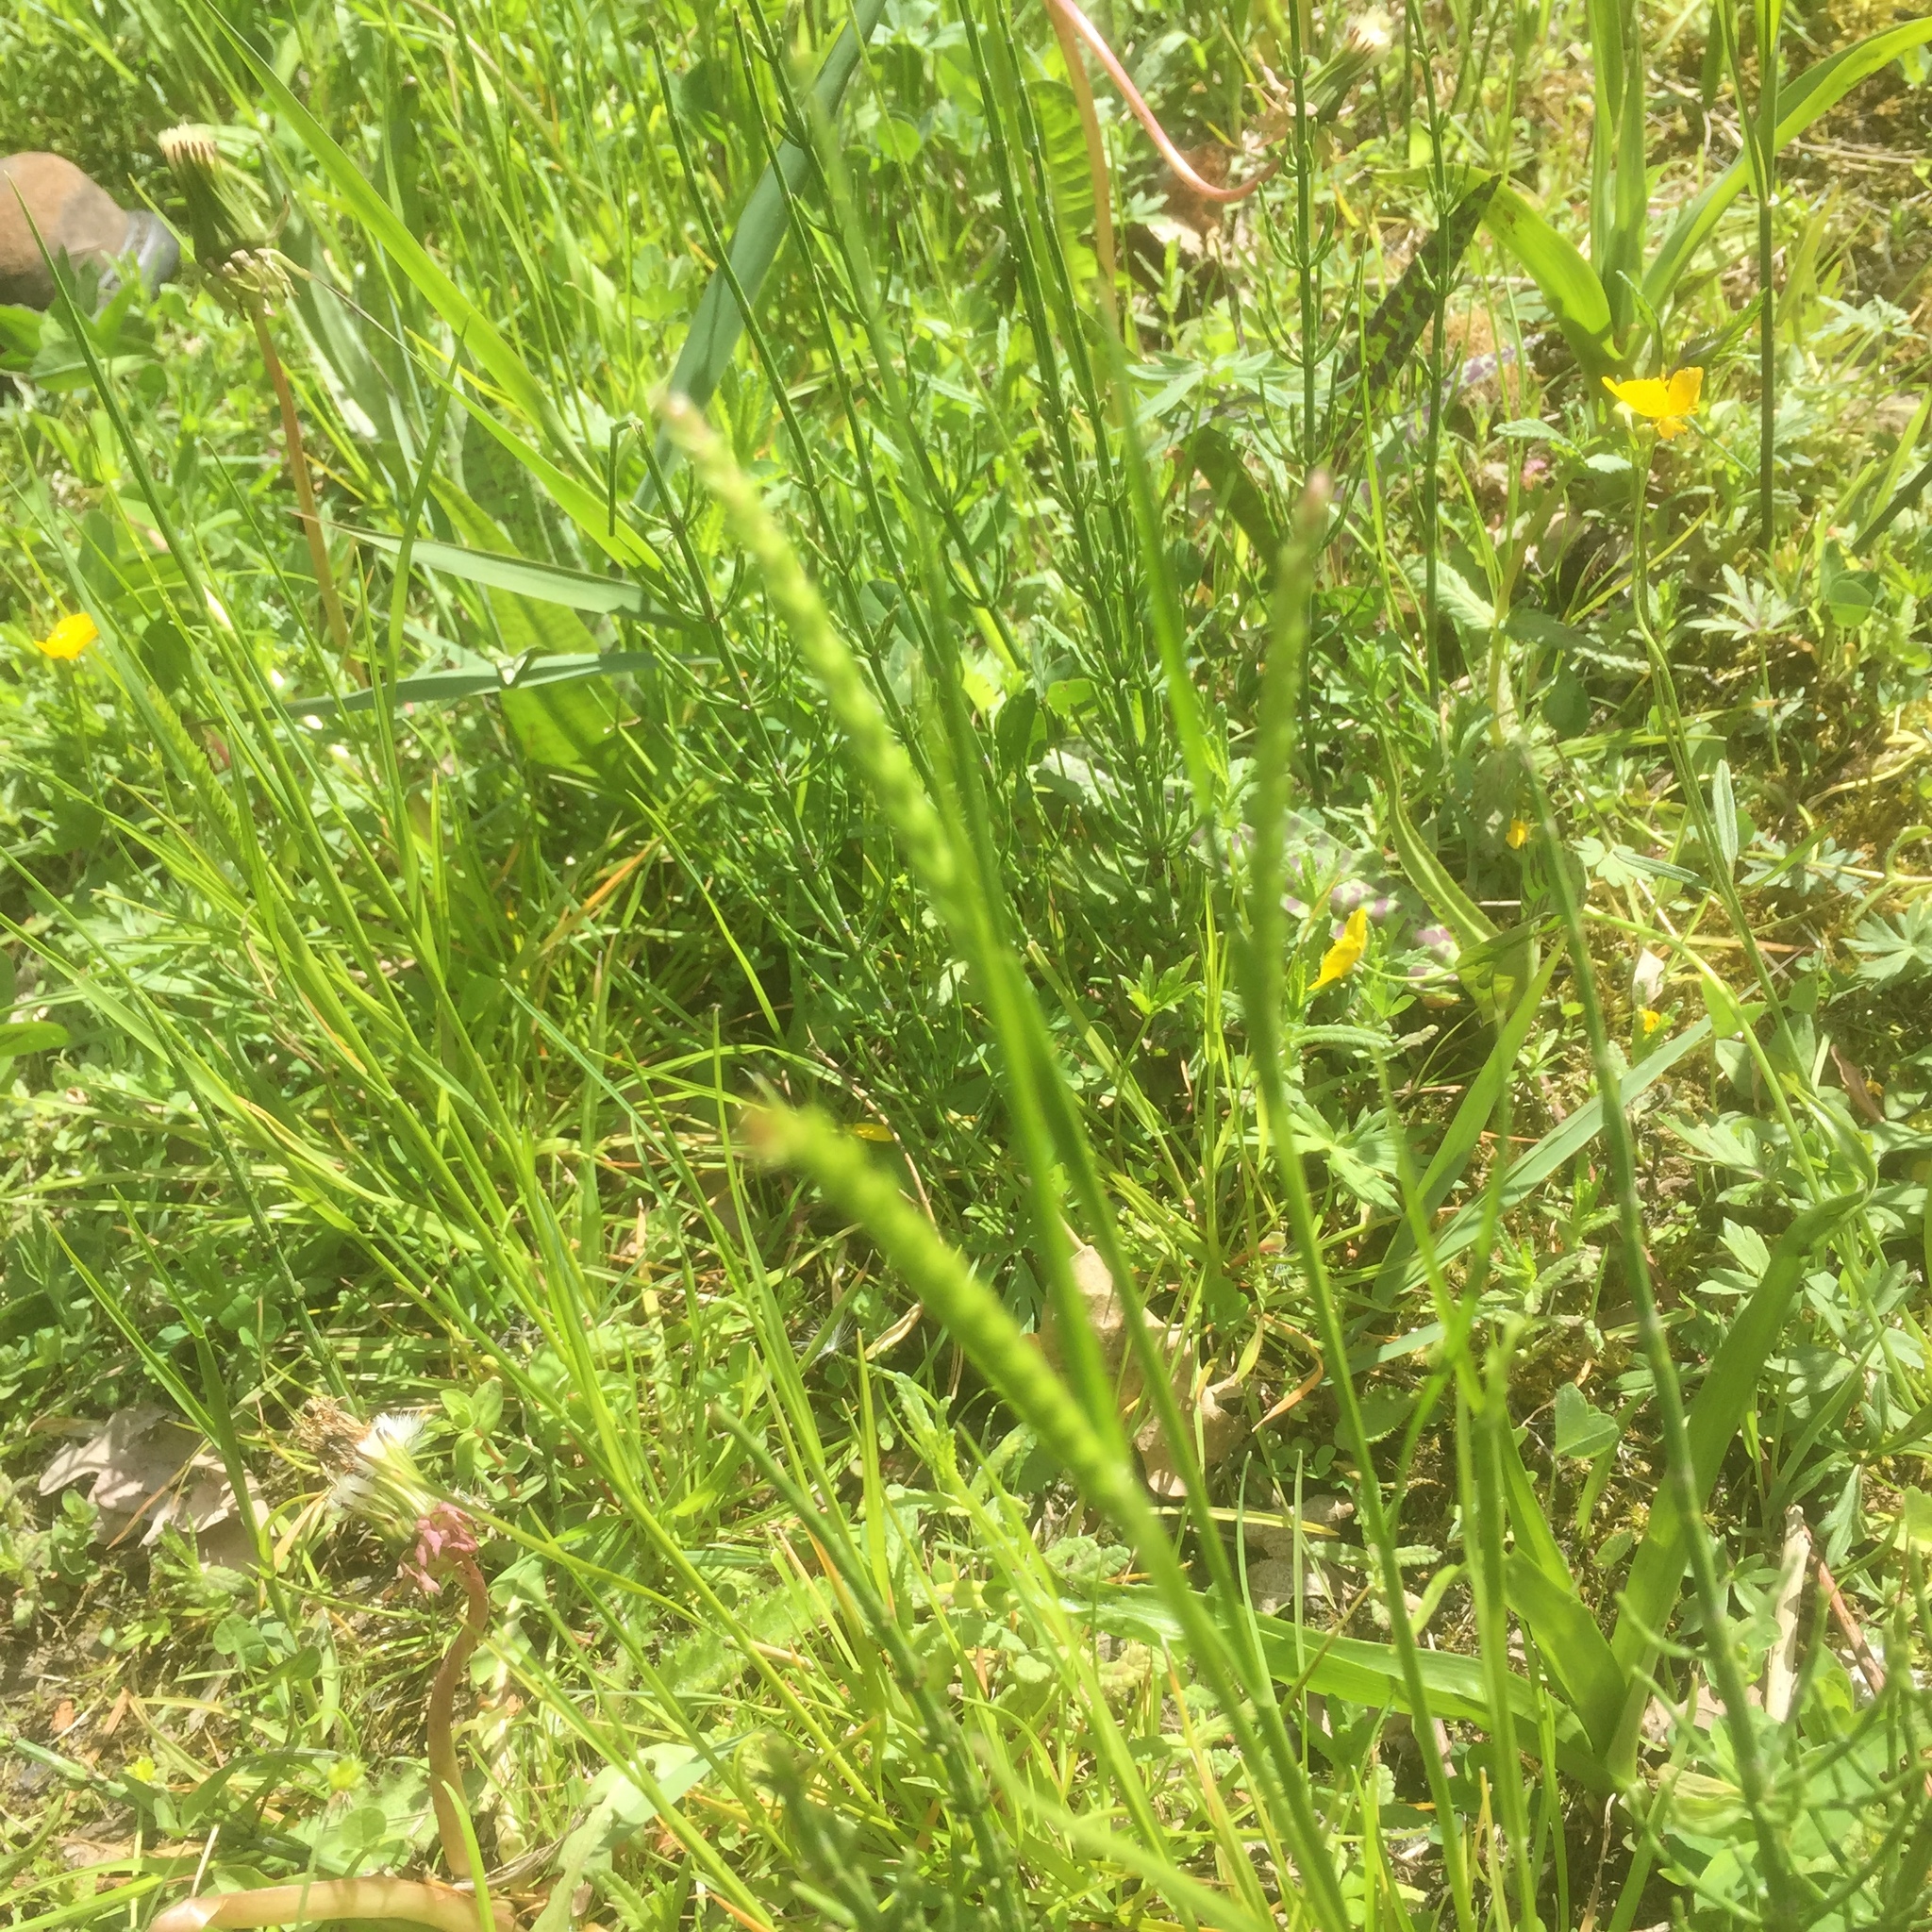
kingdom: Plantae
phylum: Tracheophyta
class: Liliopsida
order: Poales
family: Poaceae
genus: Cynosurus
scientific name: Cynosurus cristatus
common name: Crested dog's-tail
